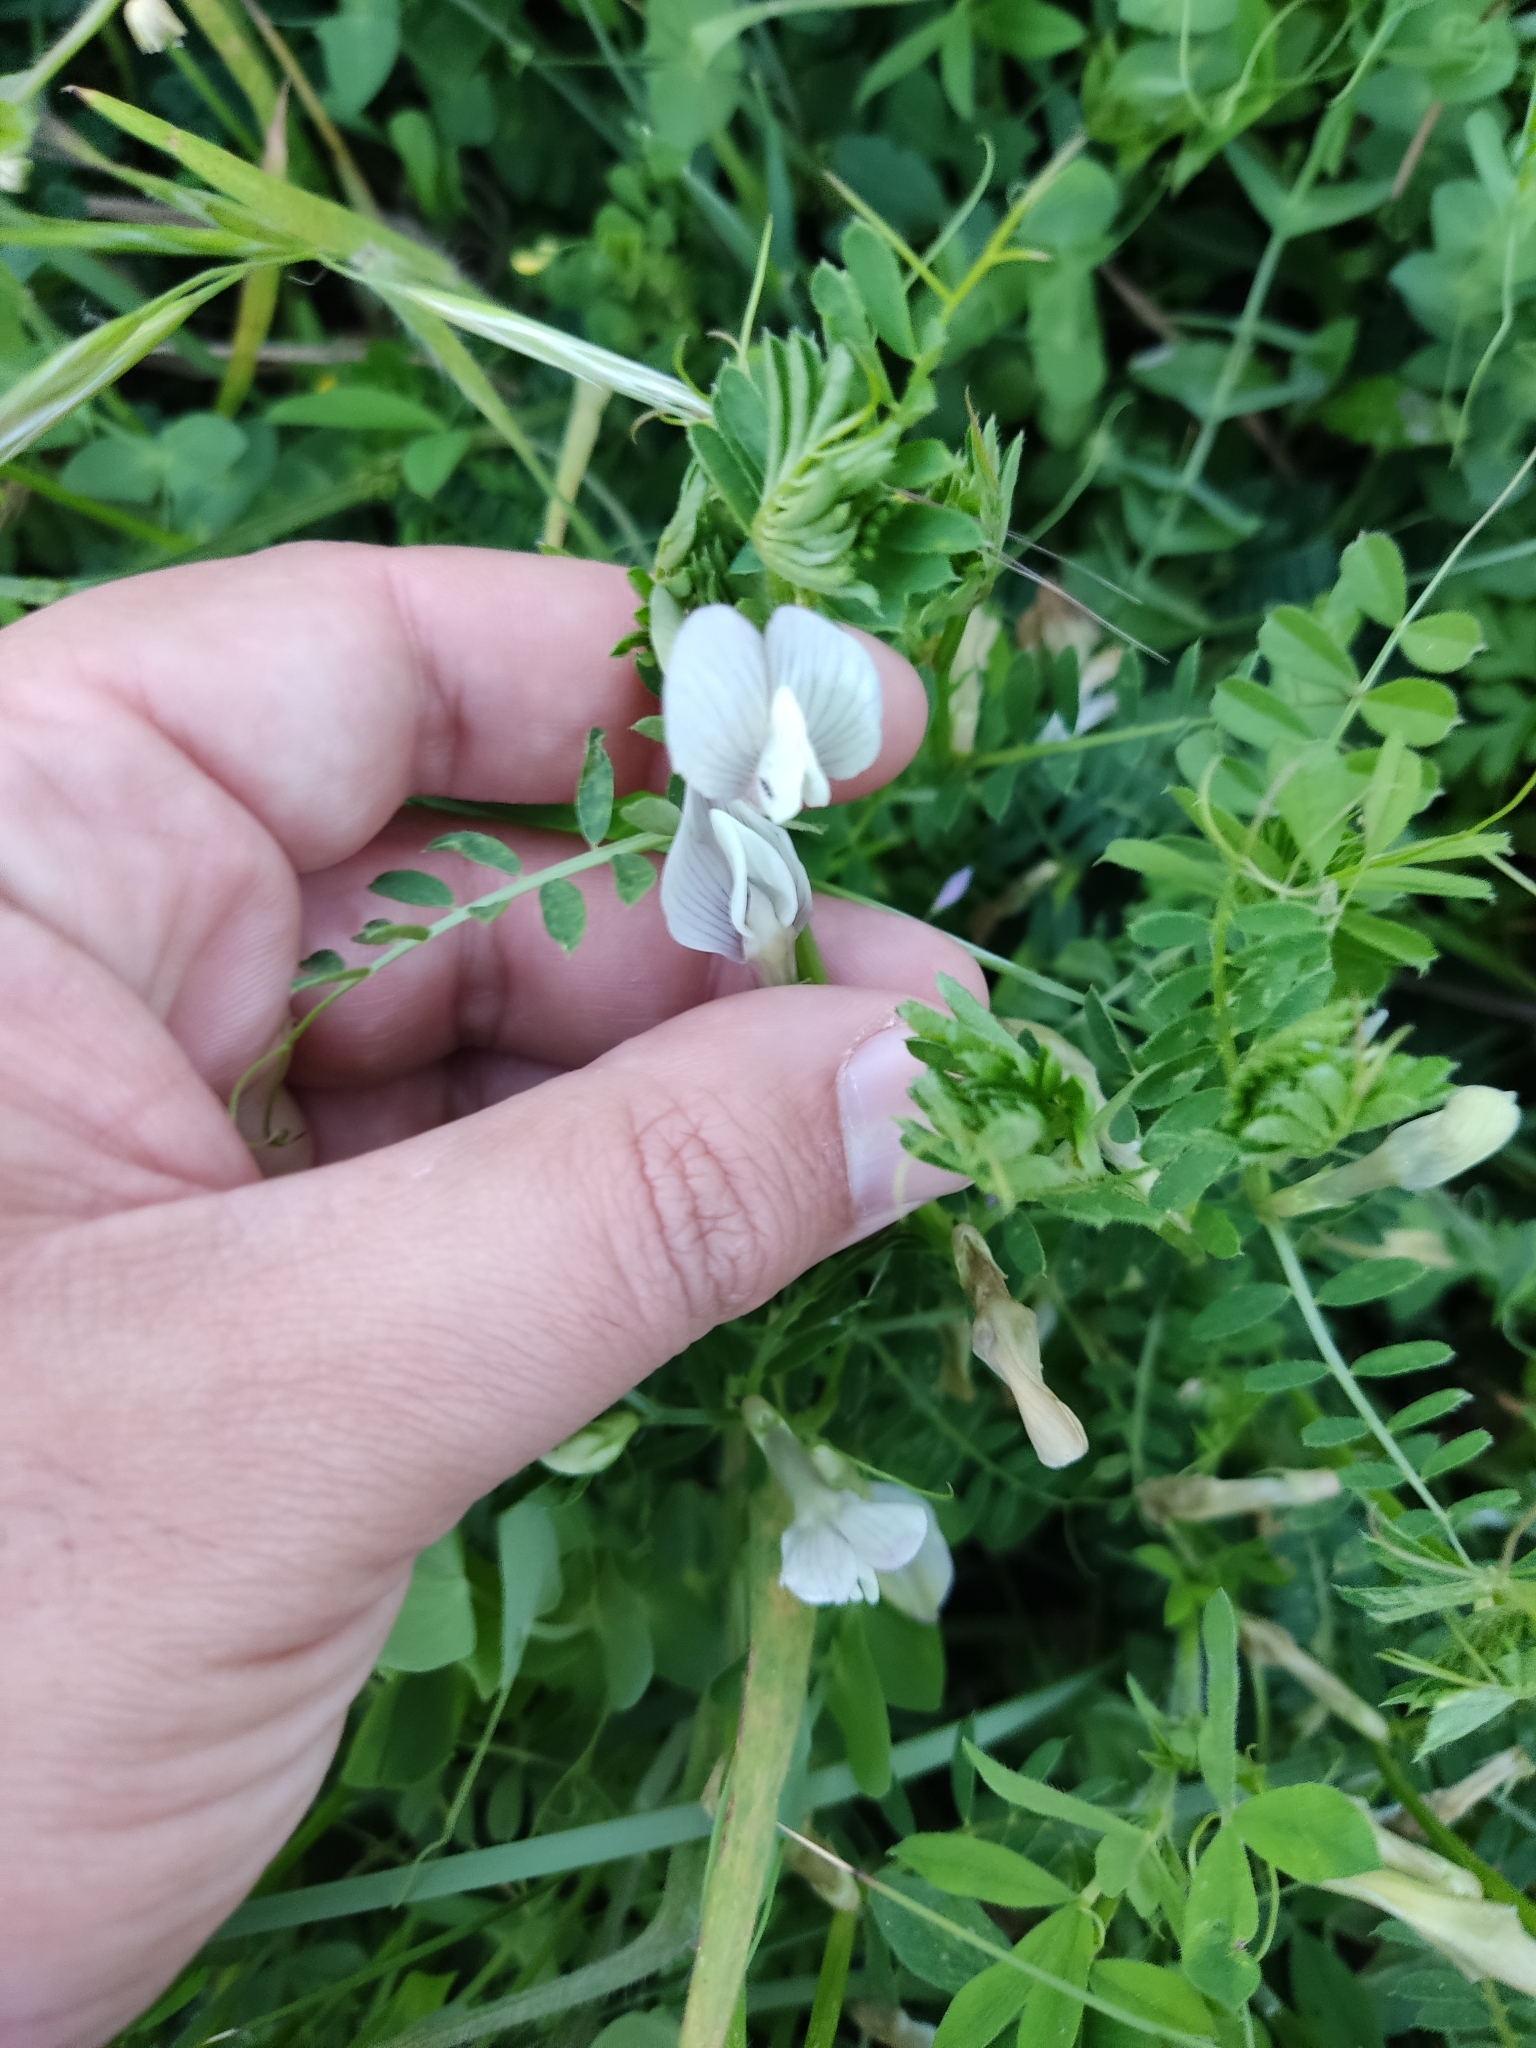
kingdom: Plantae
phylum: Tracheophyta
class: Magnoliopsida
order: Fabales
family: Fabaceae
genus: Vicia
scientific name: Vicia lutea
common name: Smooth yellow vetch
